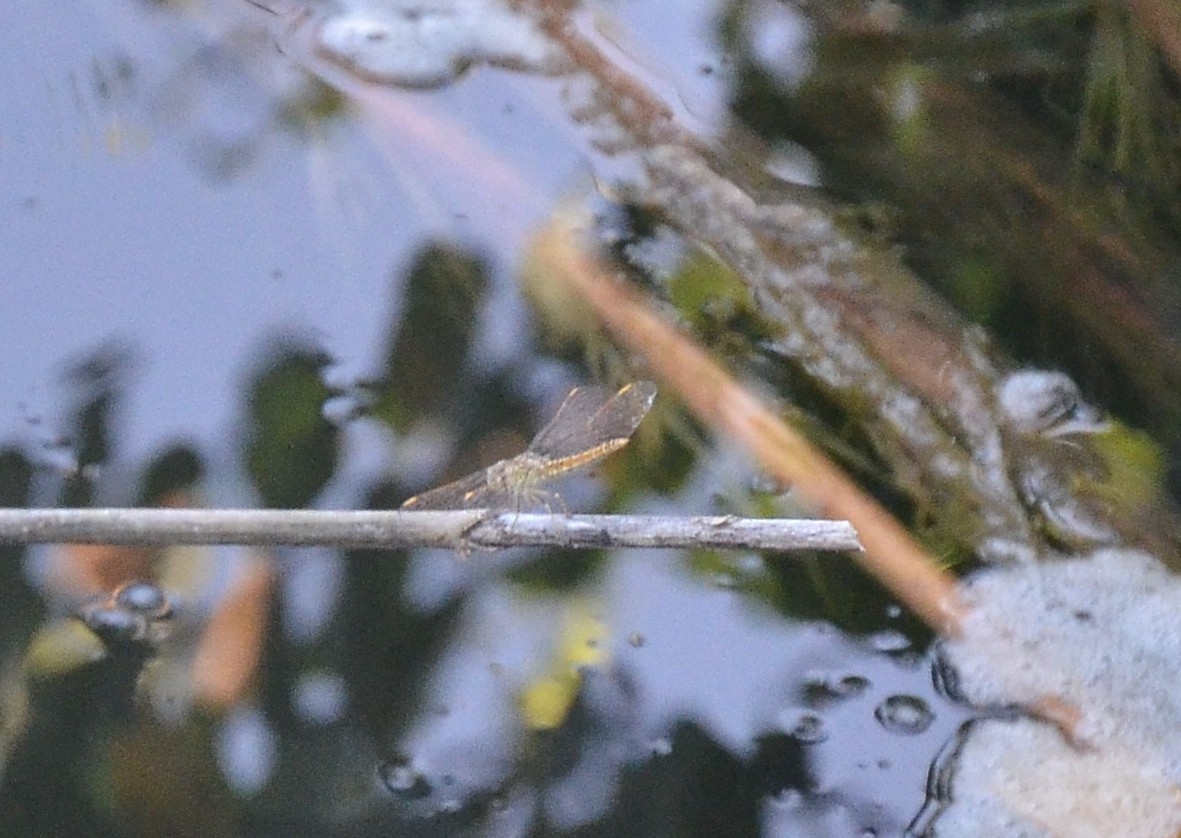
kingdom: Animalia
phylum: Arthropoda
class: Insecta
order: Odonata
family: Libellulidae
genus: Brachythemis
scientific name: Brachythemis contaminata
